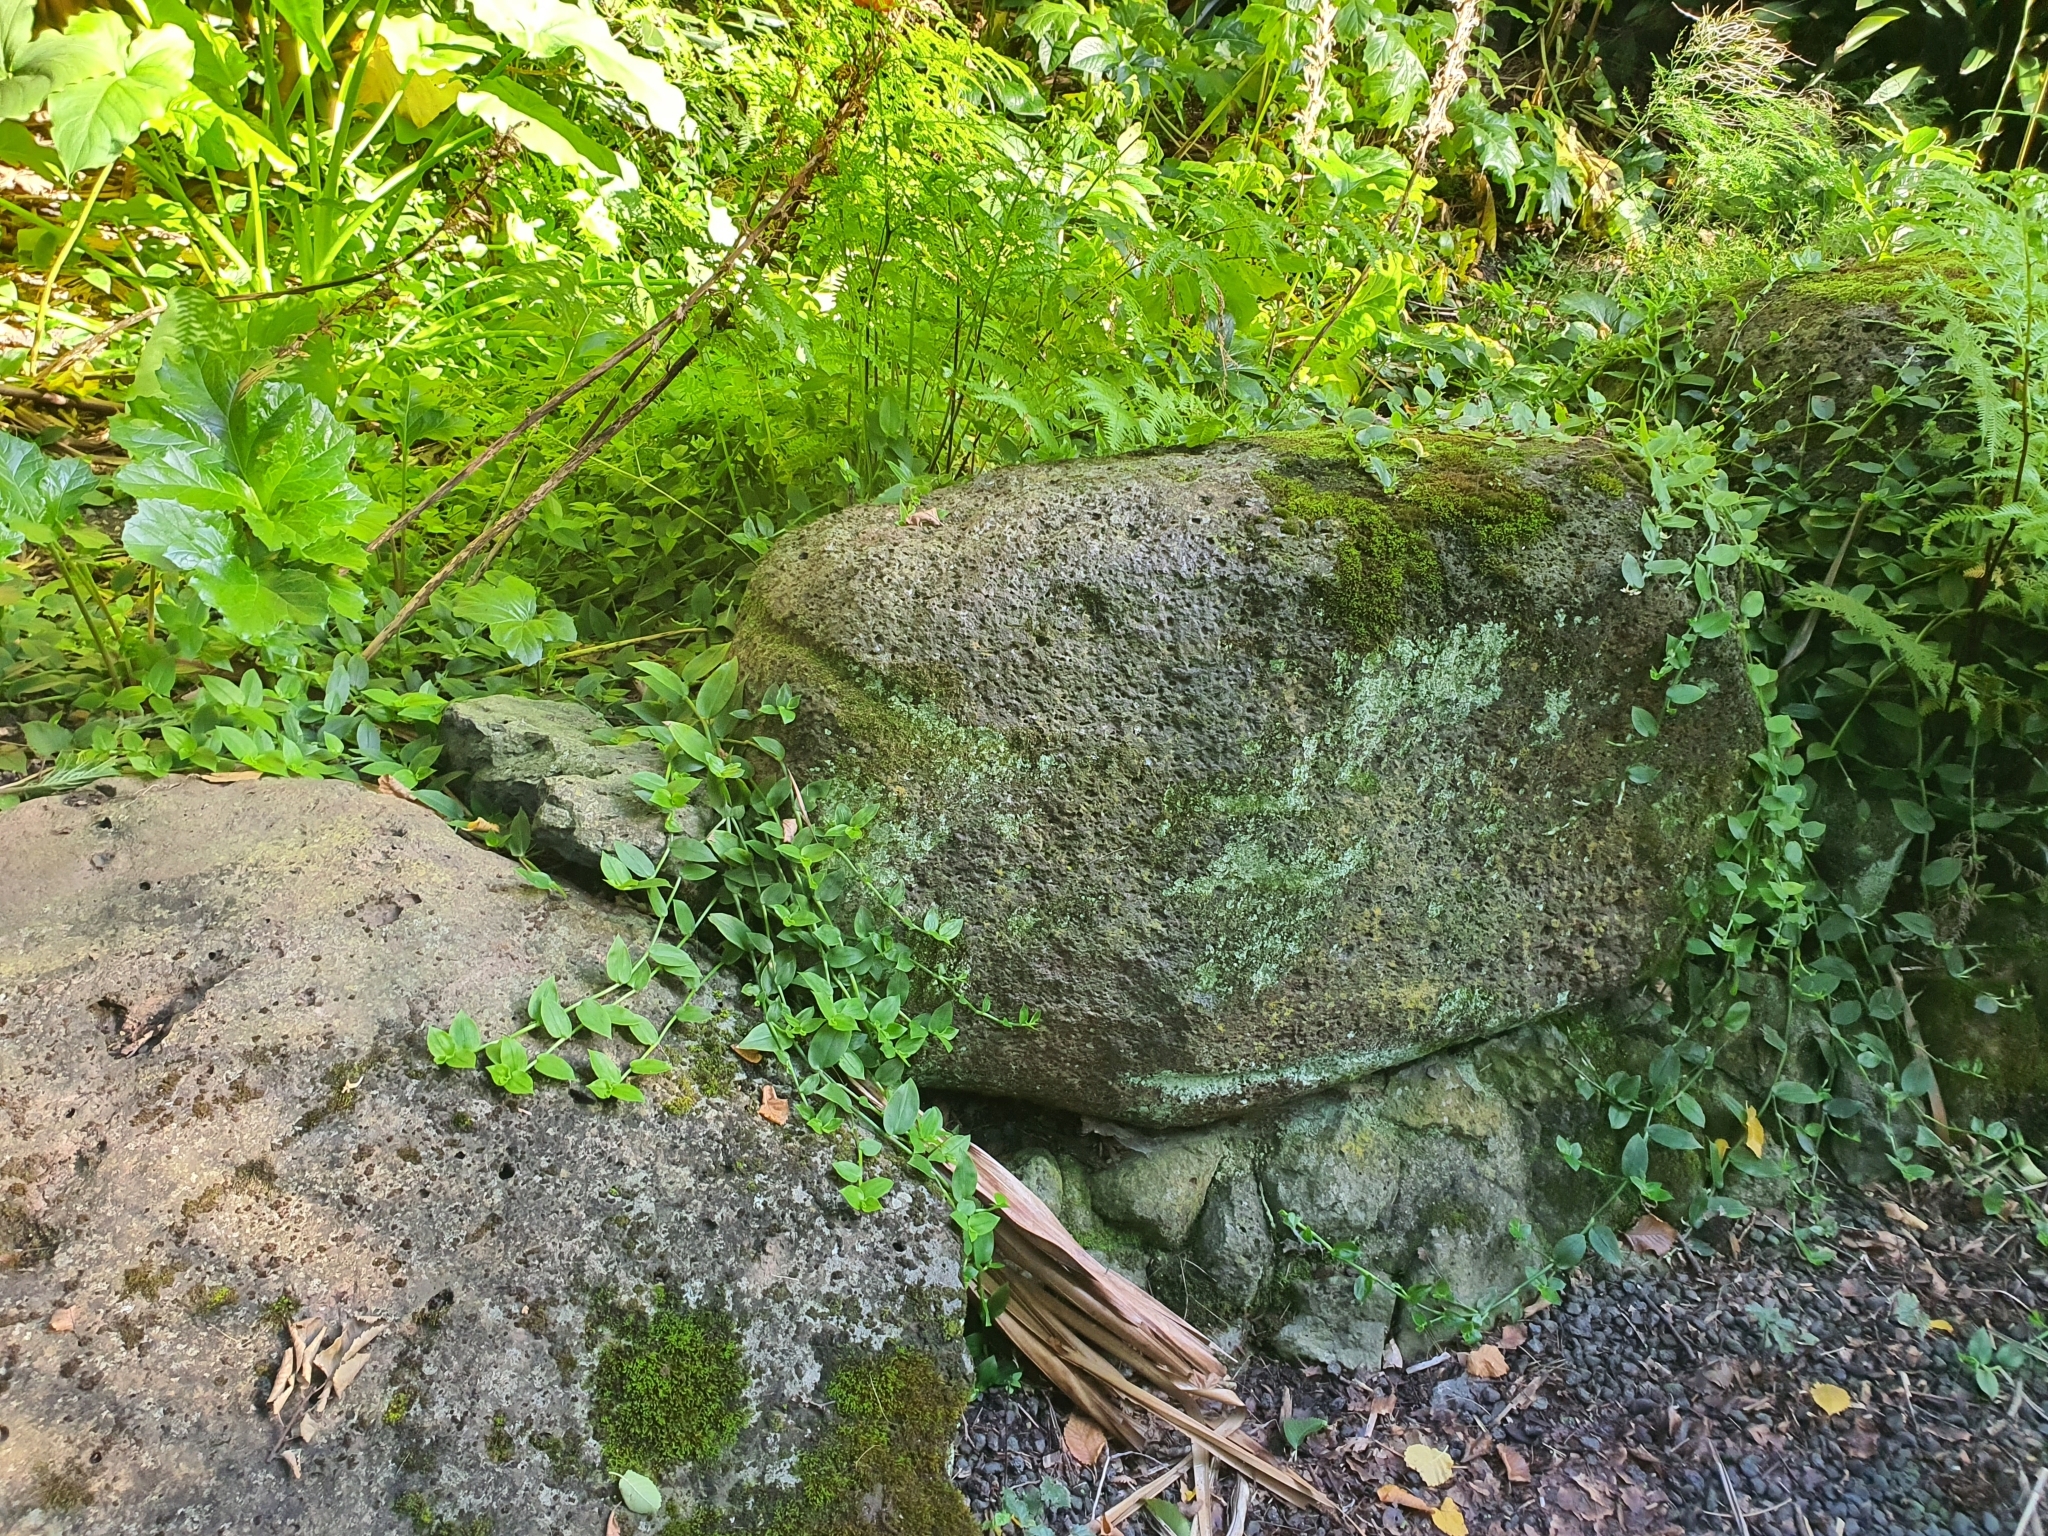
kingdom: Plantae
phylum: Tracheophyta
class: Liliopsida
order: Commelinales
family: Commelinaceae
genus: Tradescantia
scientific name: Tradescantia fluminensis
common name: Wandering-jew
